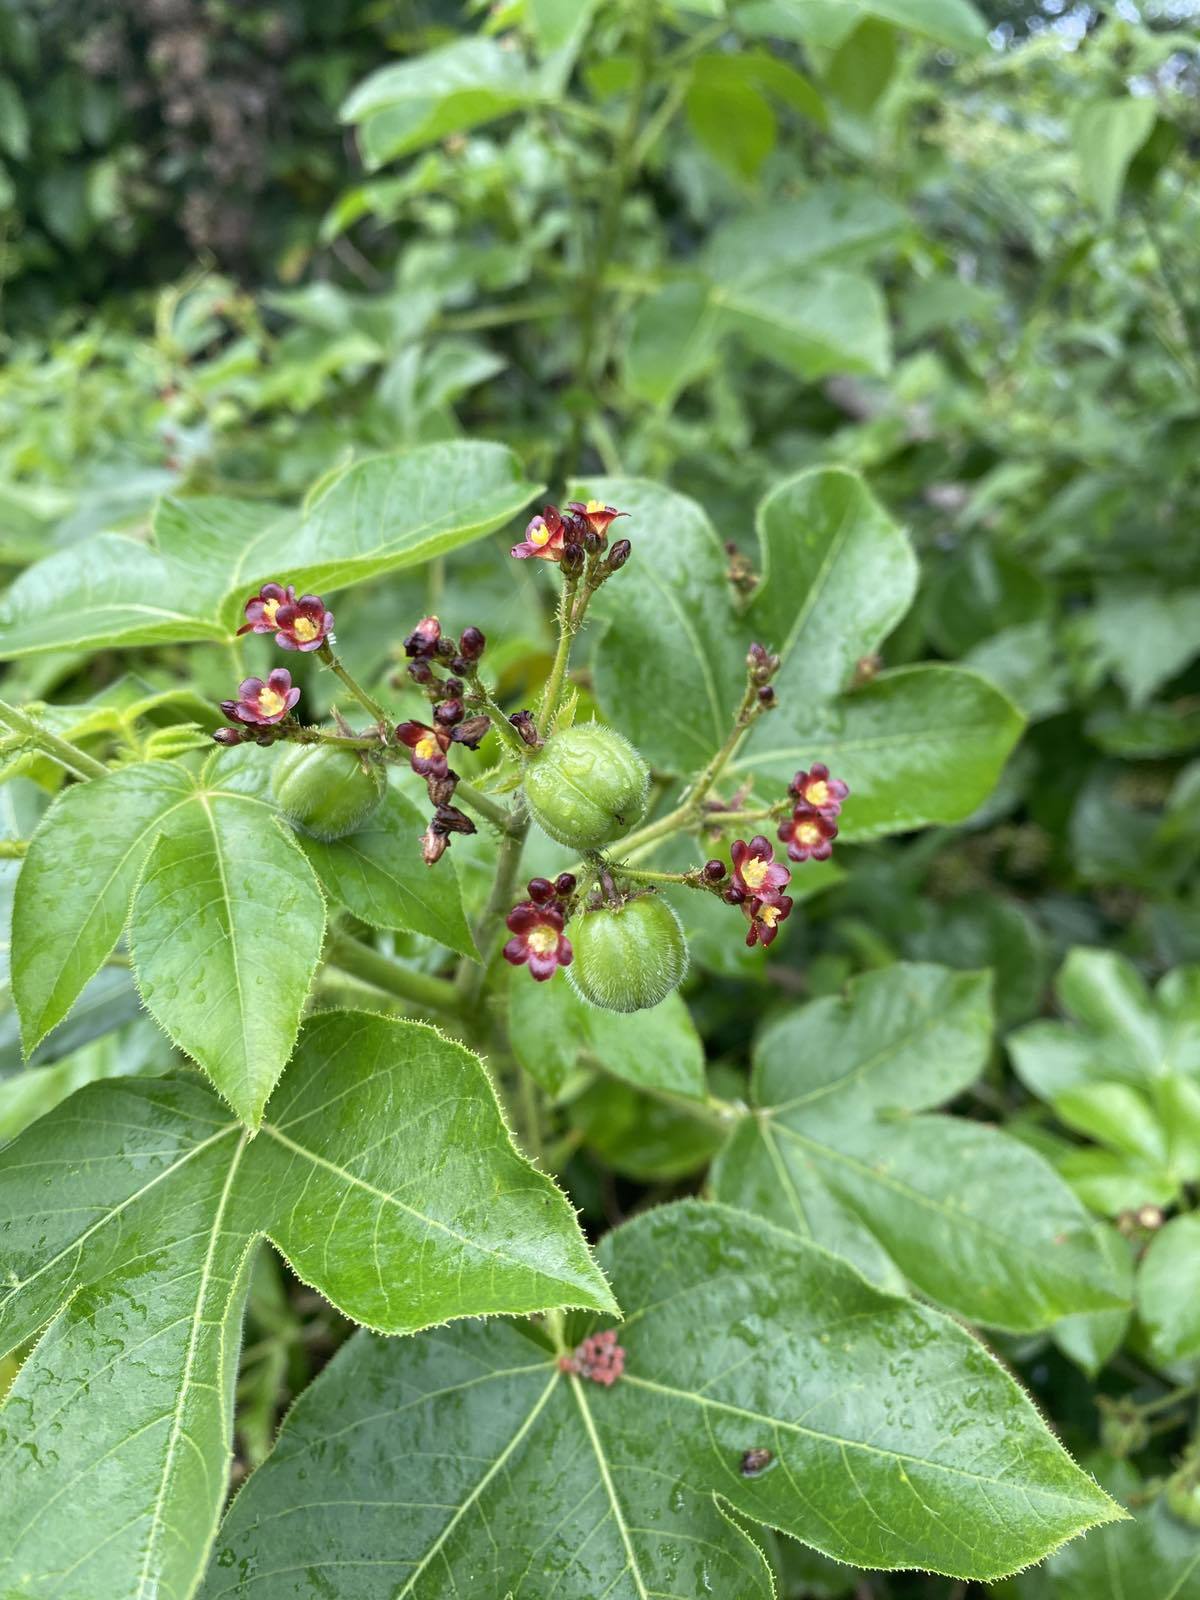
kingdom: Plantae
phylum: Tracheophyta
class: Magnoliopsida
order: Malpighiales
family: Euphorbiaceae
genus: Jatropha
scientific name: Jatropha gossypiifolia
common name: Bellyache bush
